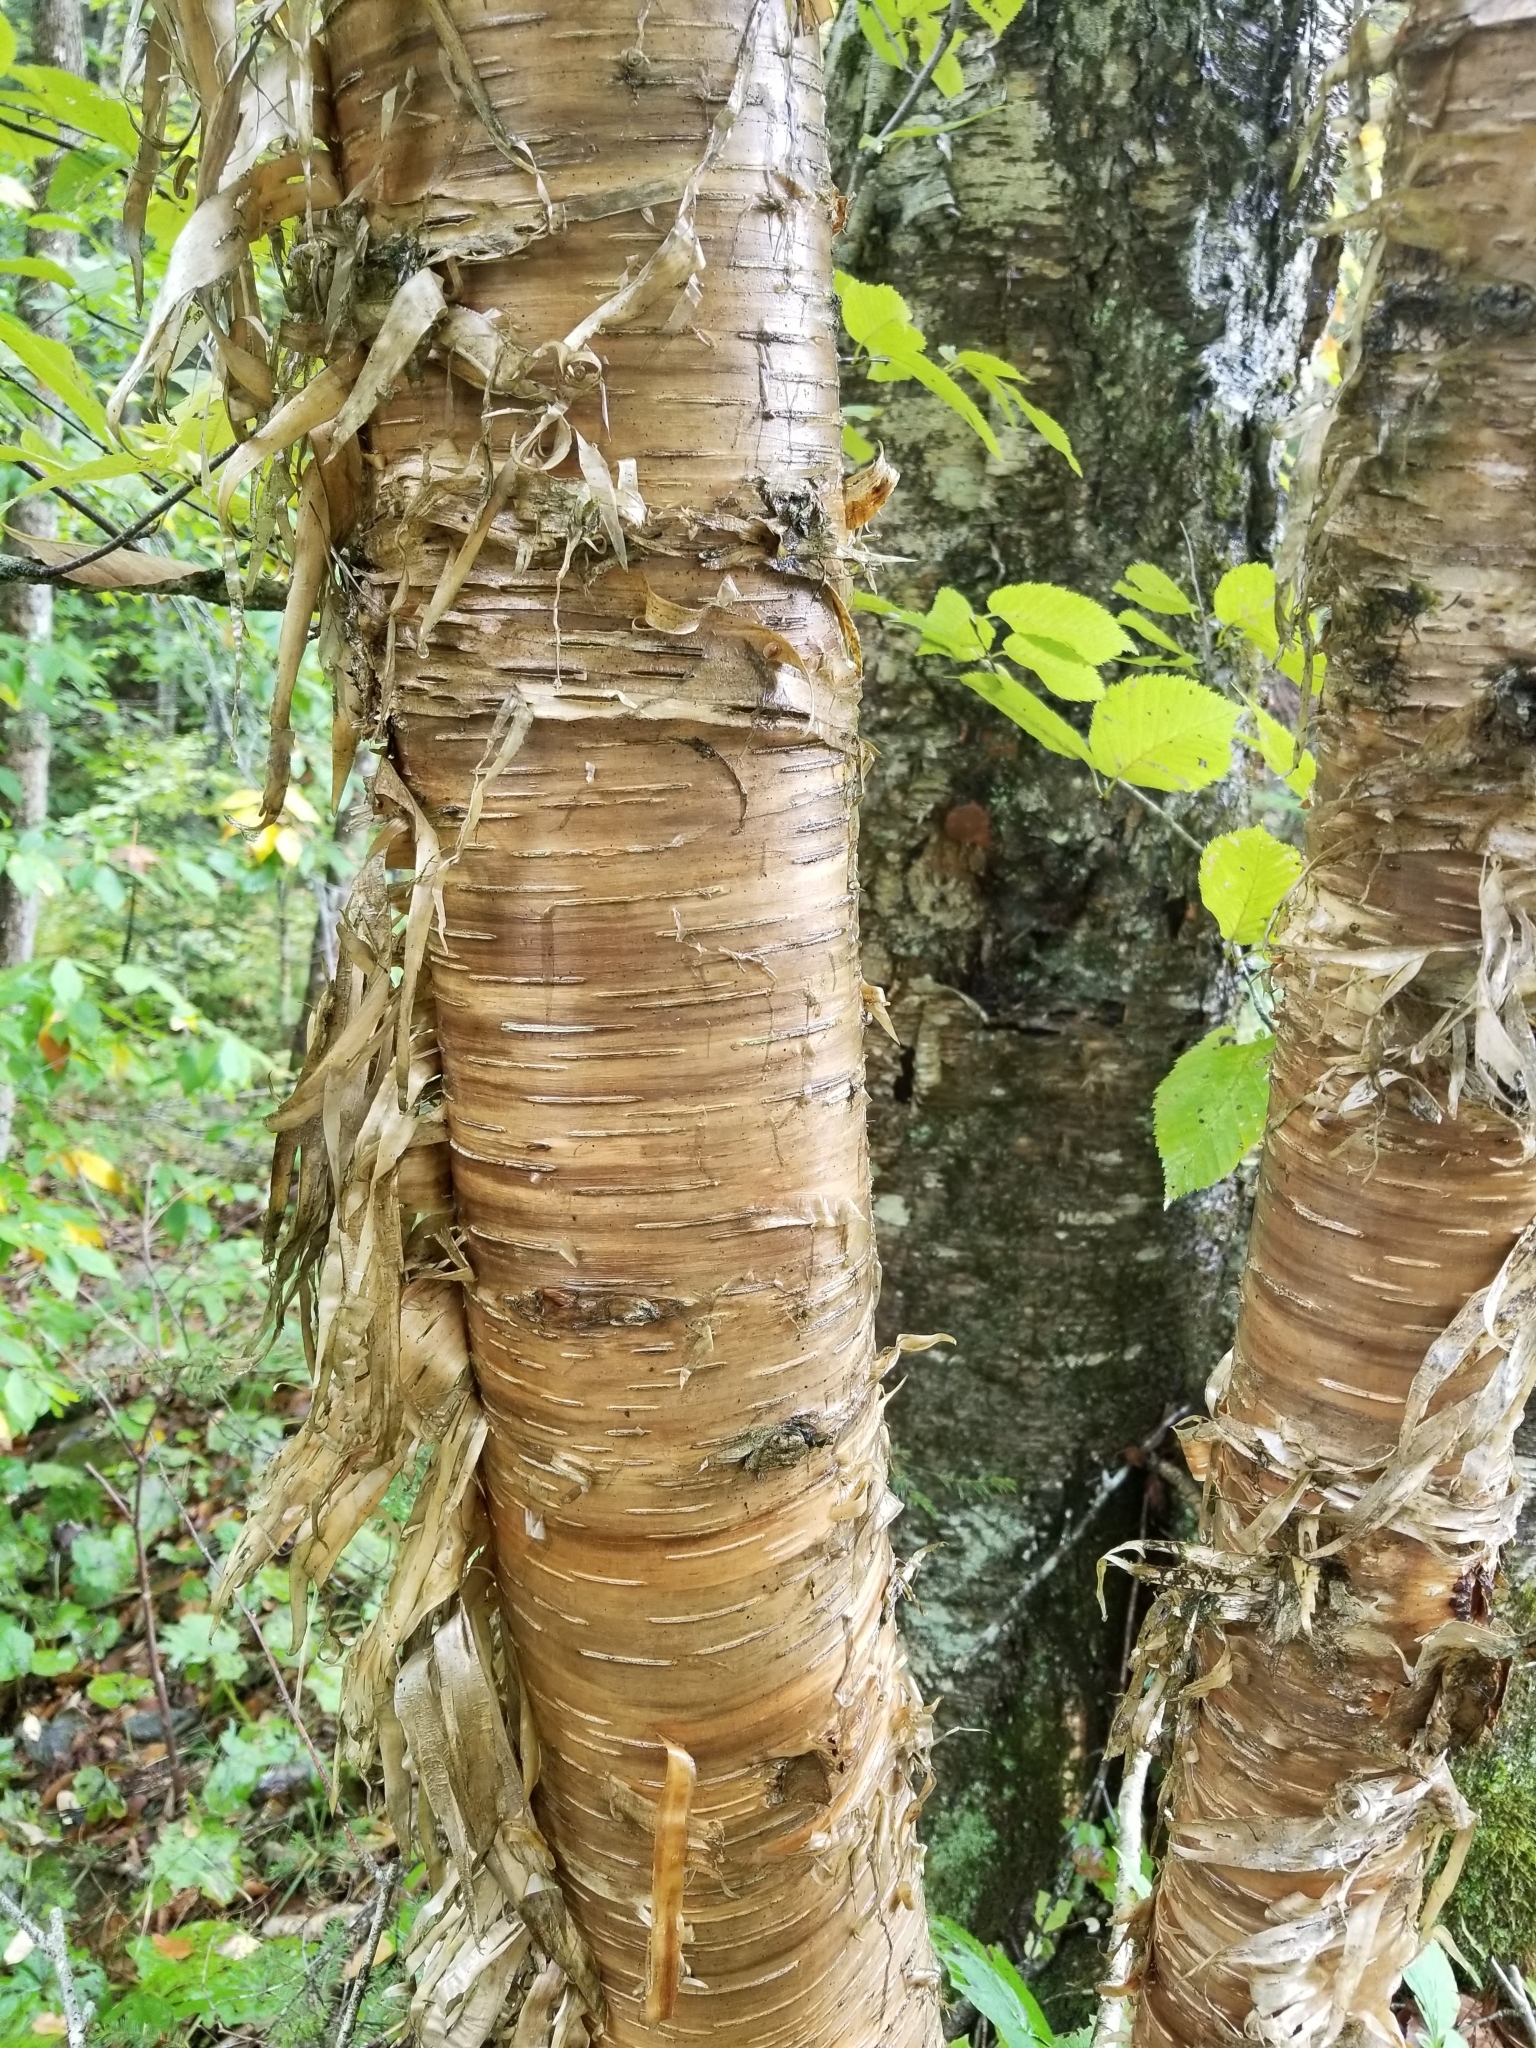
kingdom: Plantae
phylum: Tracheophyta
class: Magnoliopsida
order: Fagales
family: Betulaceae
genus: Betula
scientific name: Betula alleghaniensis
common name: Yellow birch
